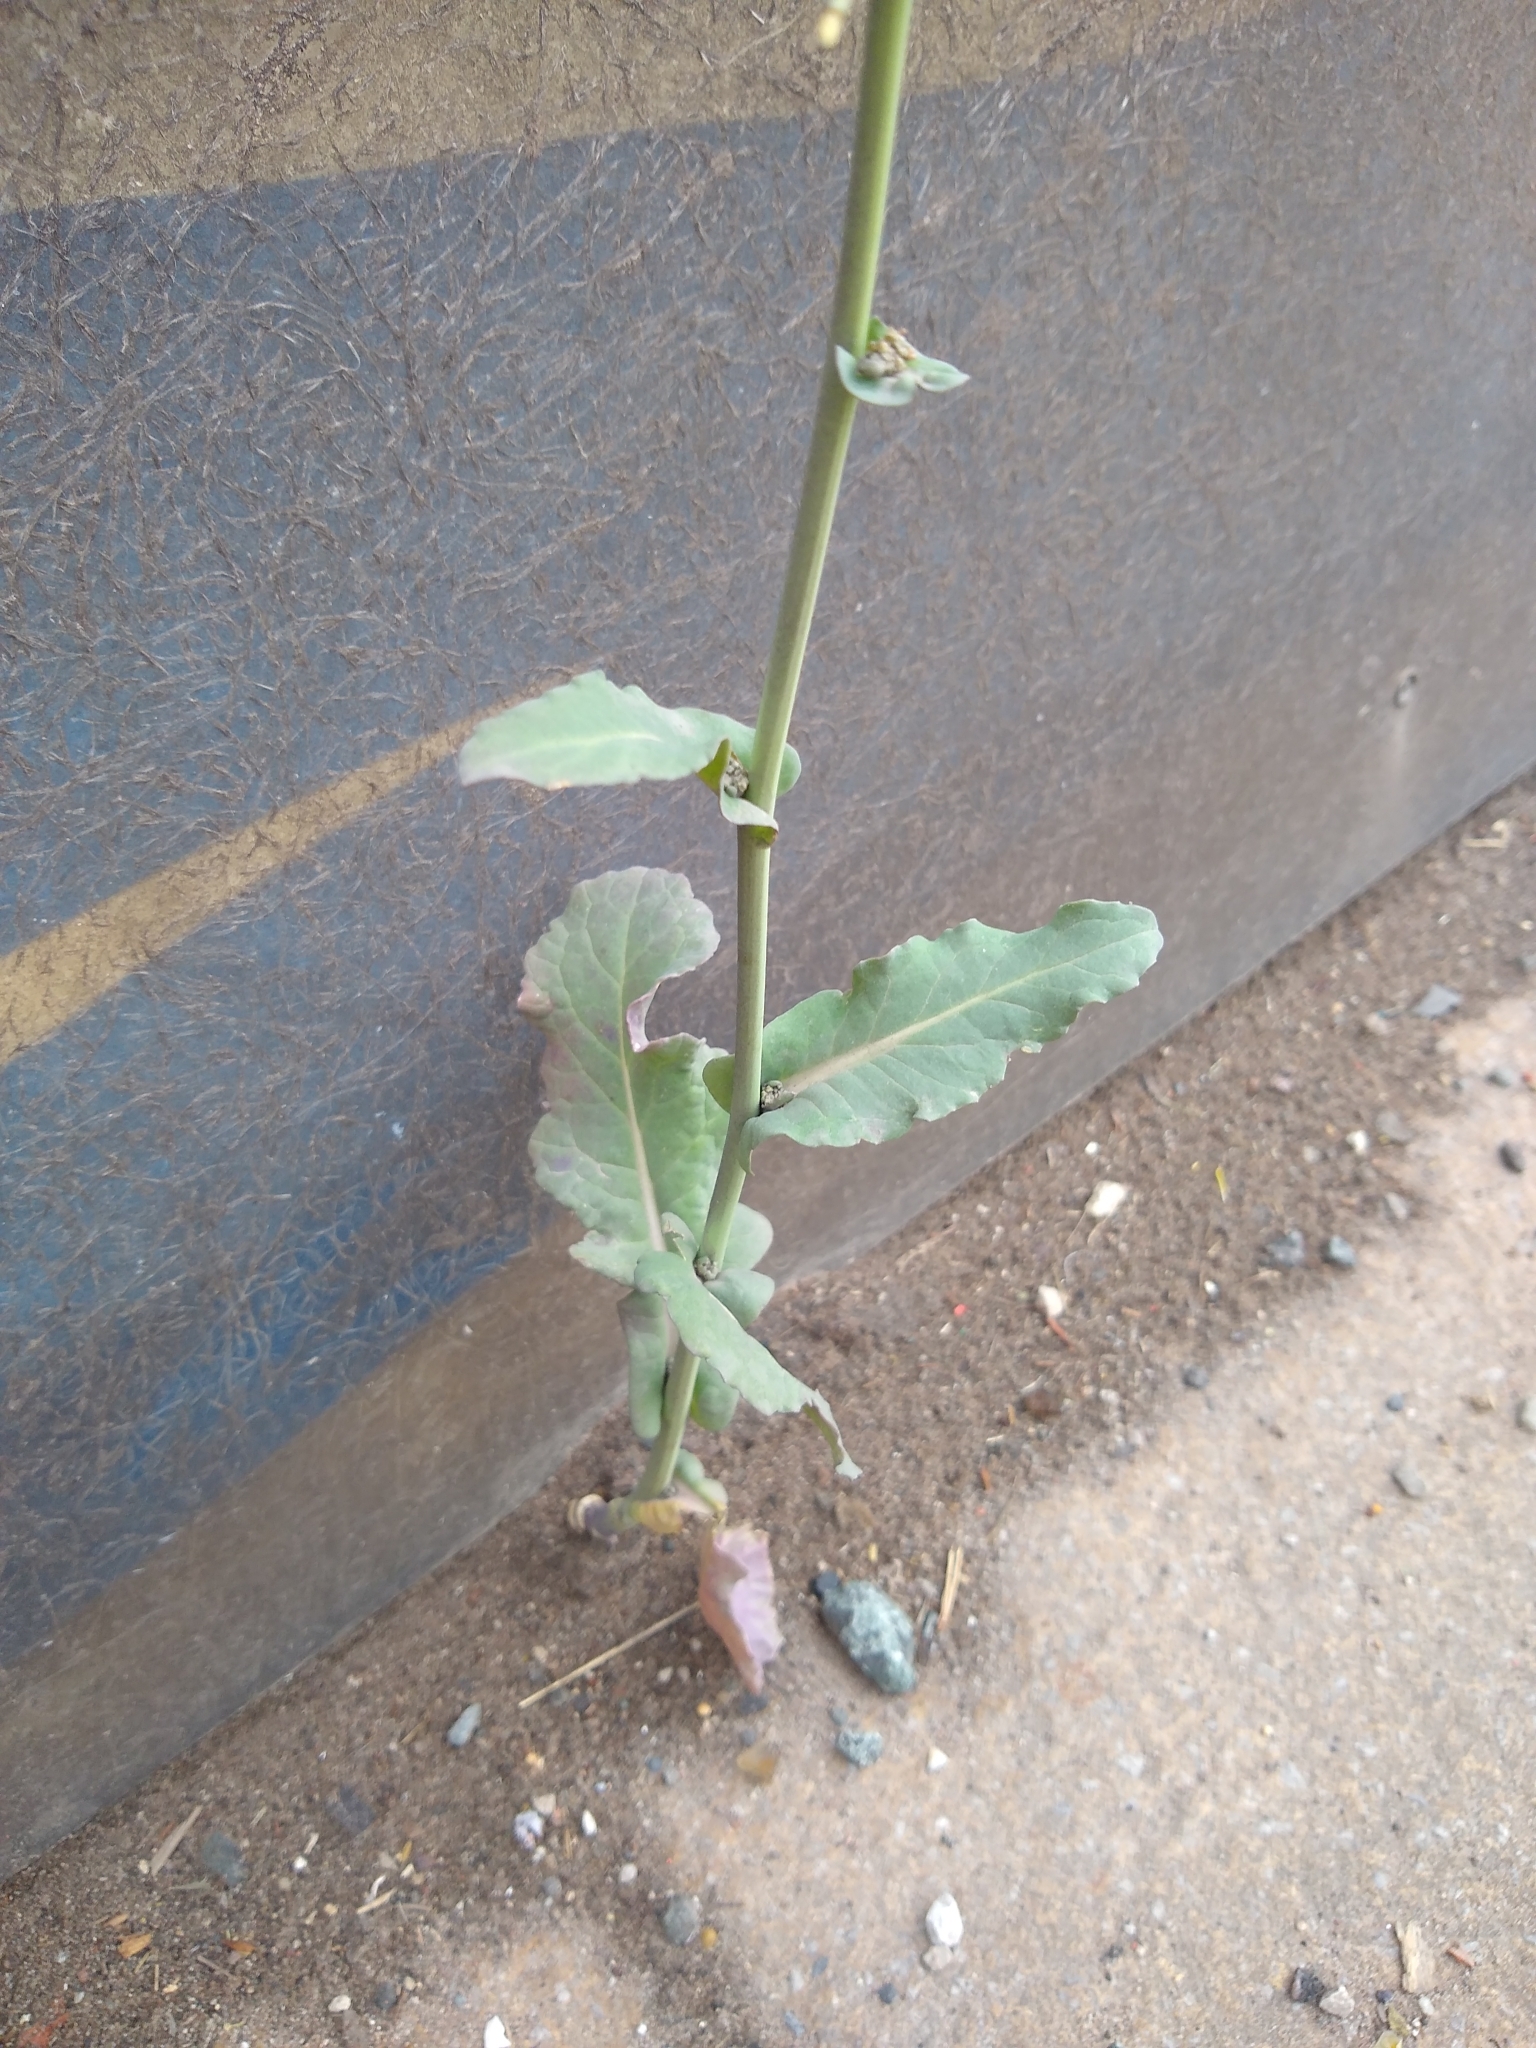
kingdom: Plantae
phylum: Tracheophyta
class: Magnoliopsida
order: Brassicales
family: Brassicaceae
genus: Brassica
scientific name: Brassica napus
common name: Rape
